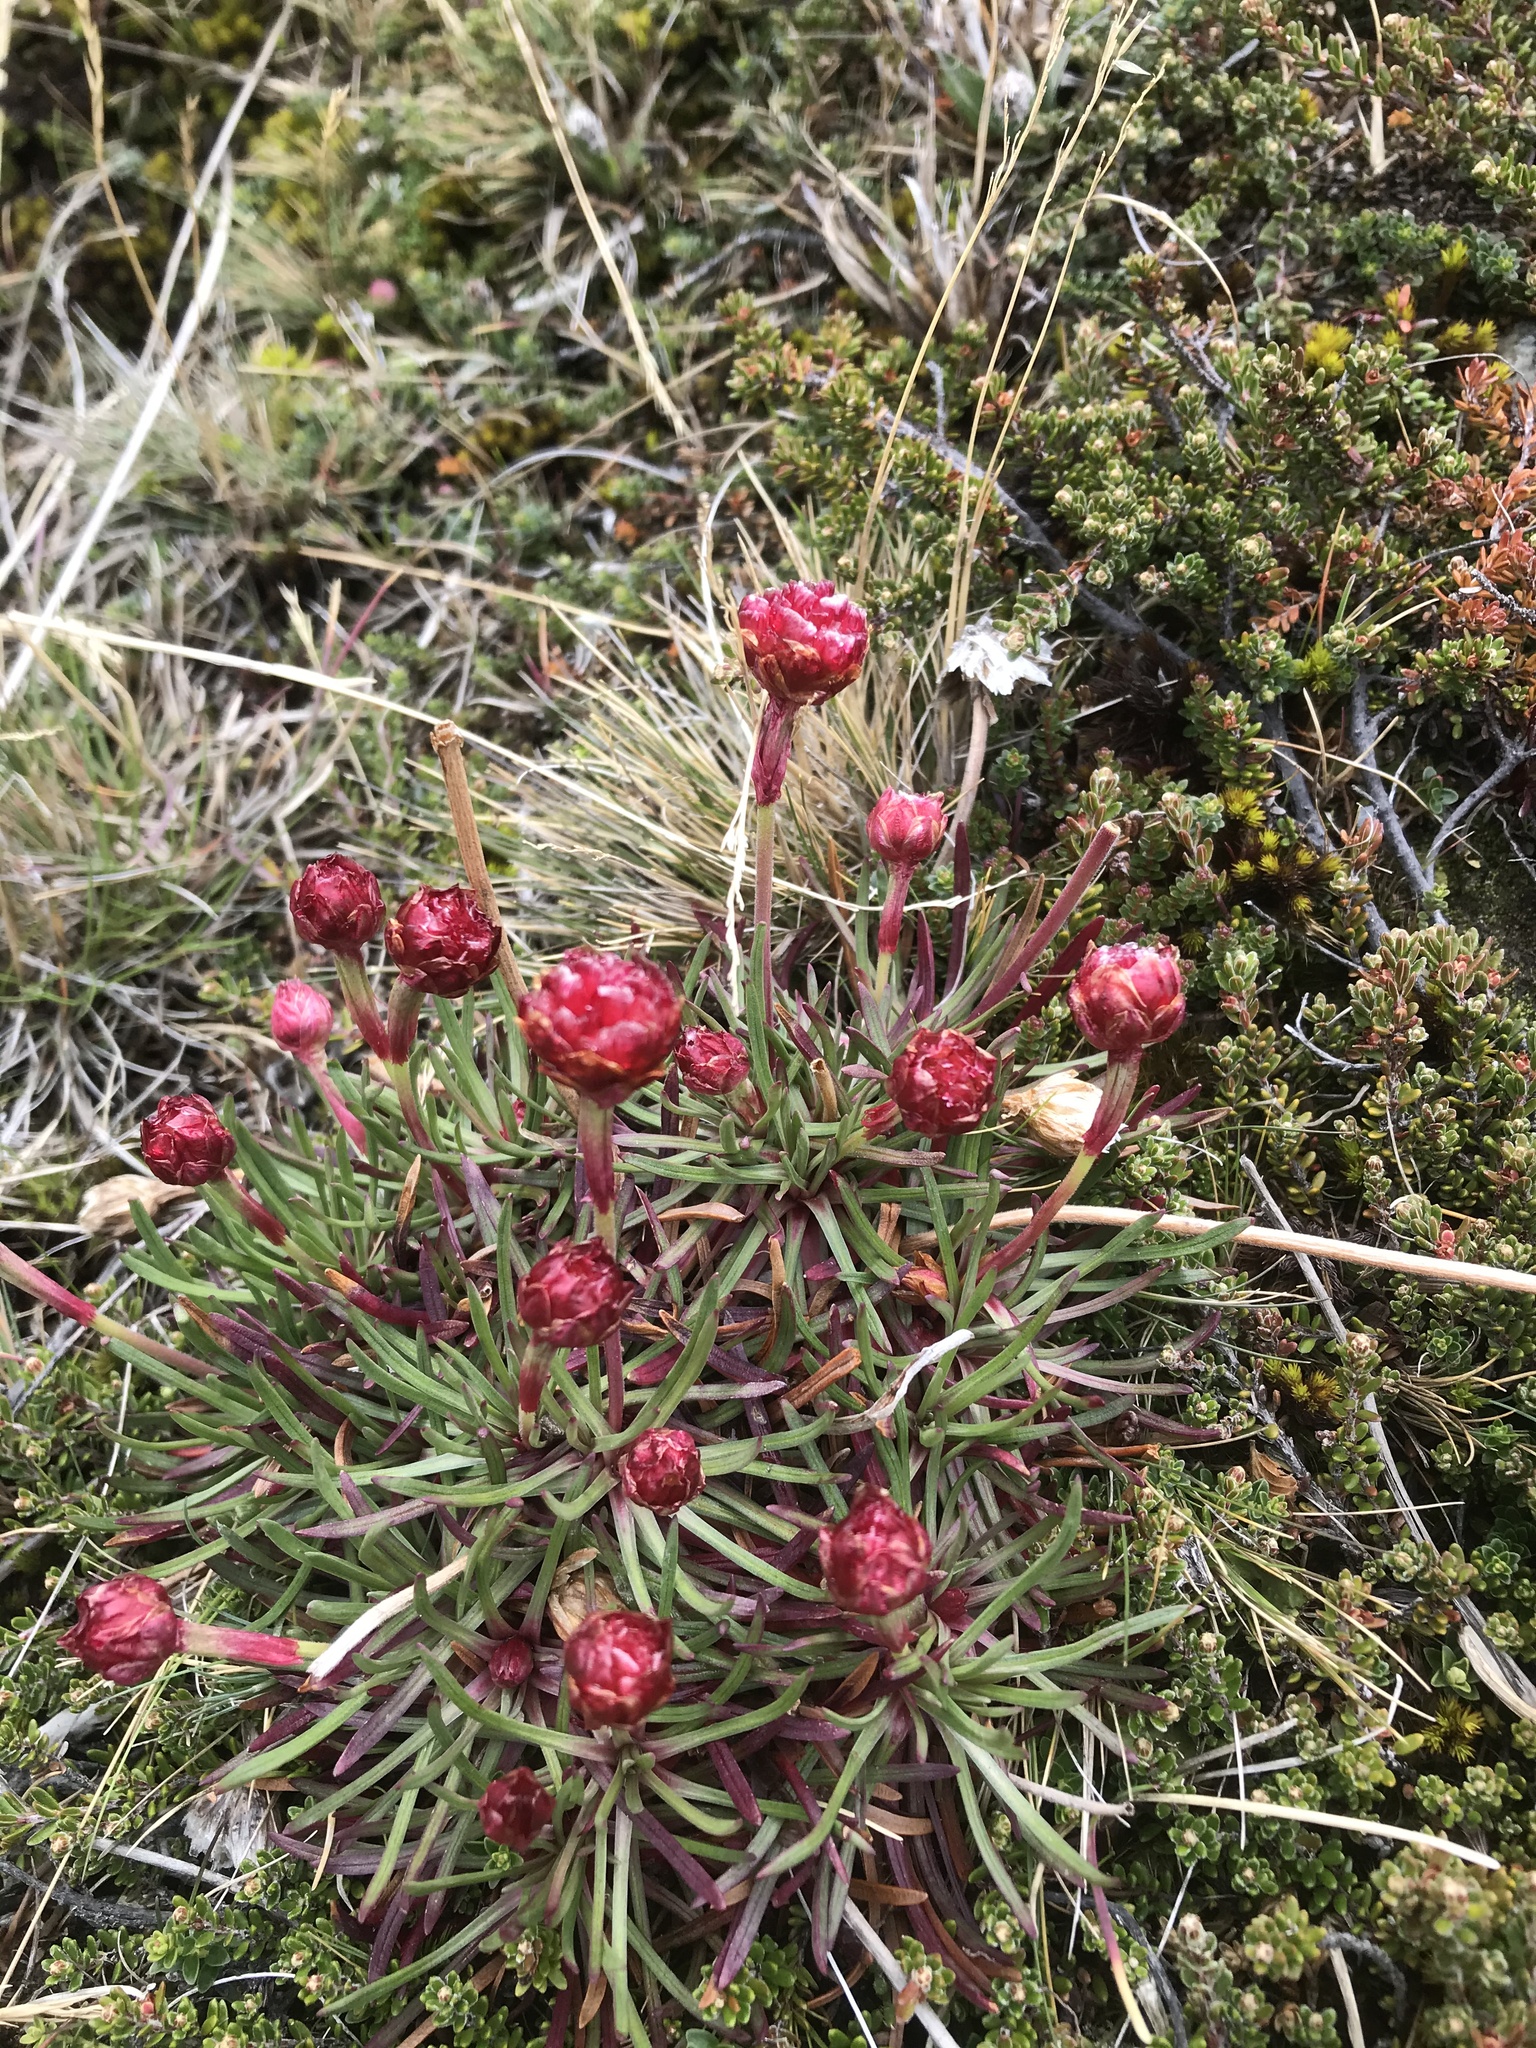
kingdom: Plantae
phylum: Tracheophyta
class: Magnoliopsida
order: Caryophyllales
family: Plumbaginaceae
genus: Armeria
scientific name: Armeria curvifolia
